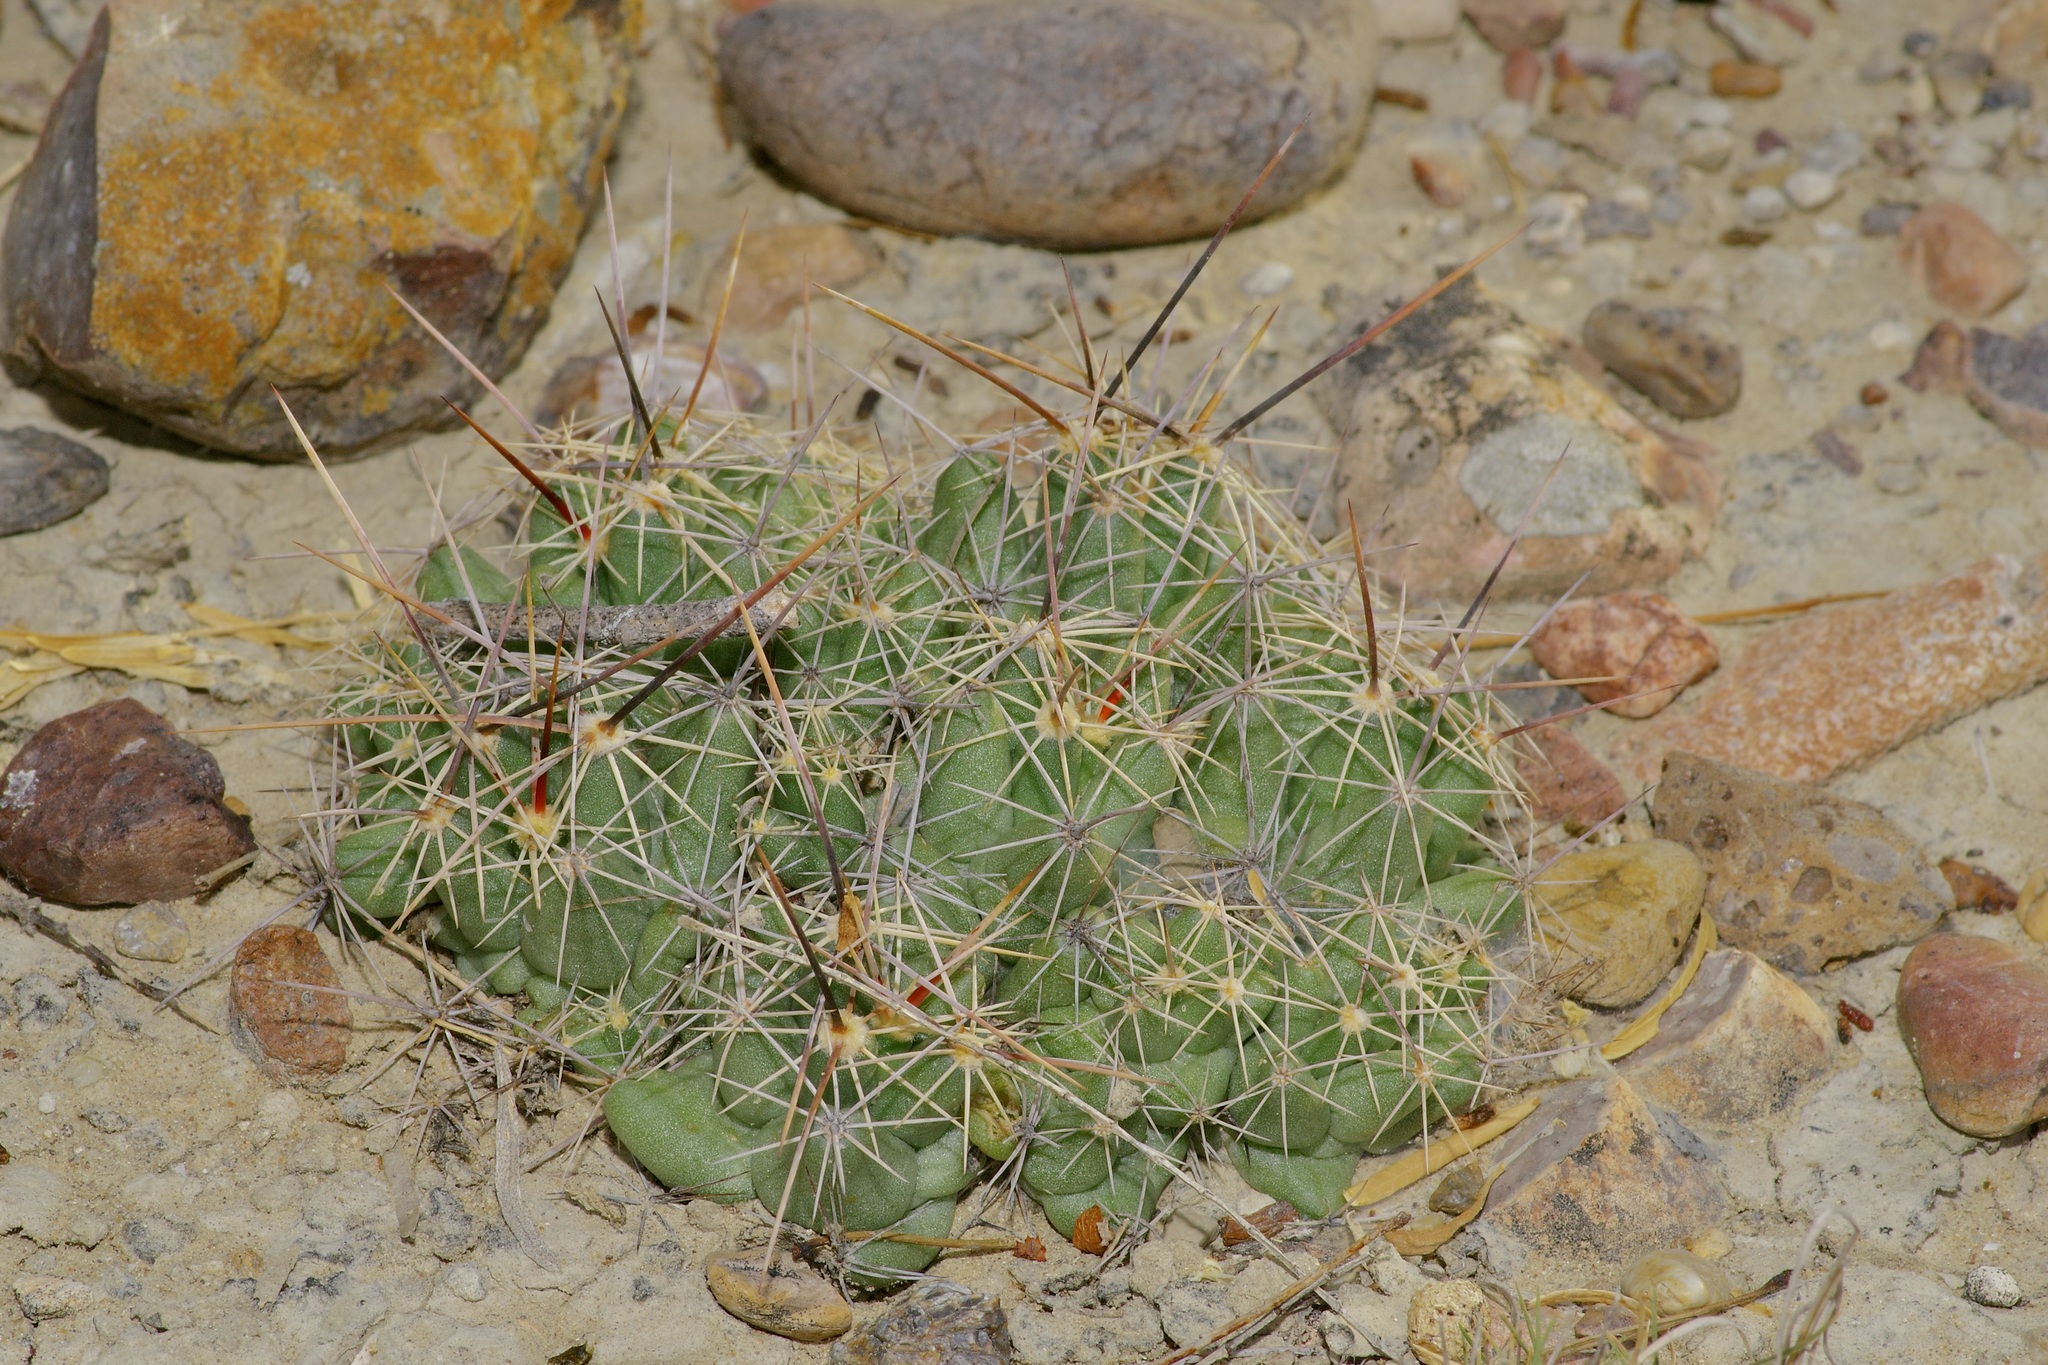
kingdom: Plantae
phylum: Tracheophyta
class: Magnoliopsida
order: Caryophyllales
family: Cactaceae
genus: Pelecyphora
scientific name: Pelecyphora macromeris
